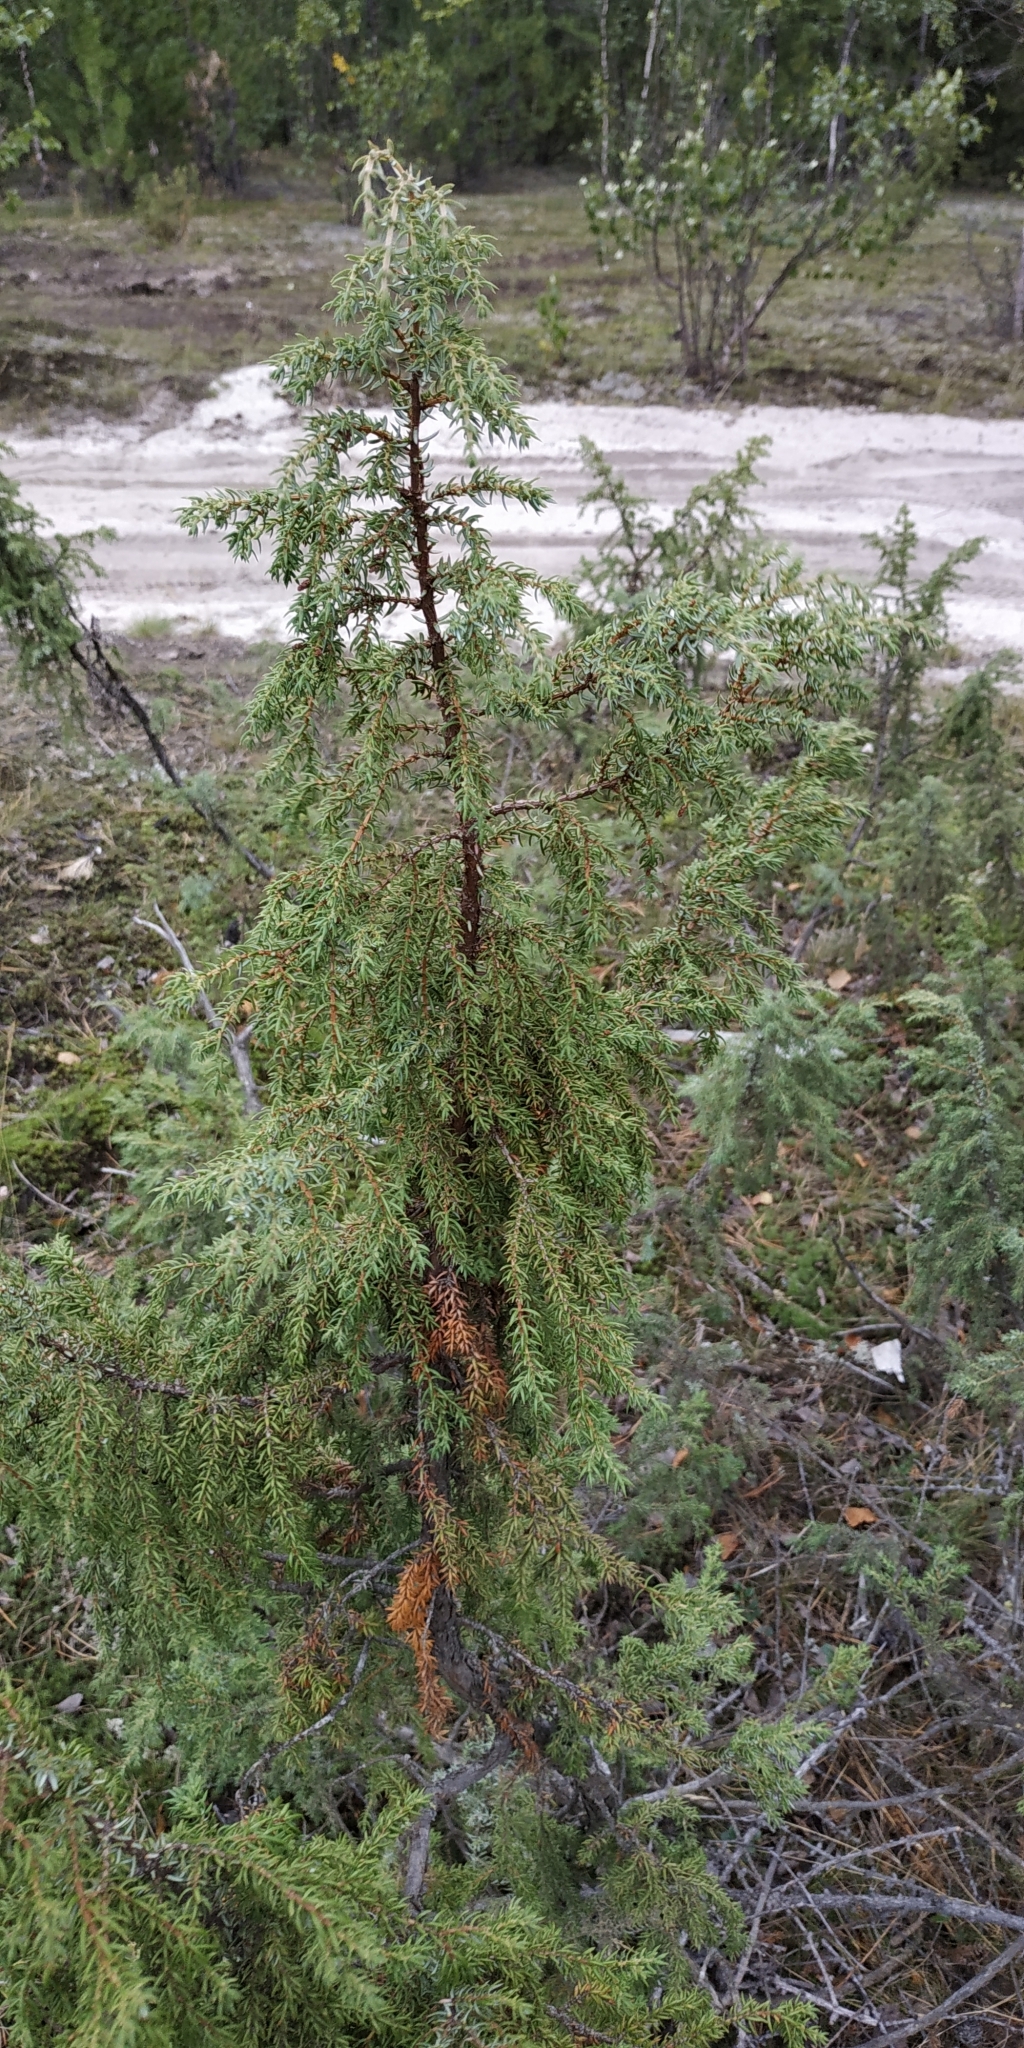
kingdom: Plantae
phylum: Tracheophyta
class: Pinopsida
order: Pinales
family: Cupressaceae
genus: Juniperus
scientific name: Juniperus communis
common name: Common juniper
